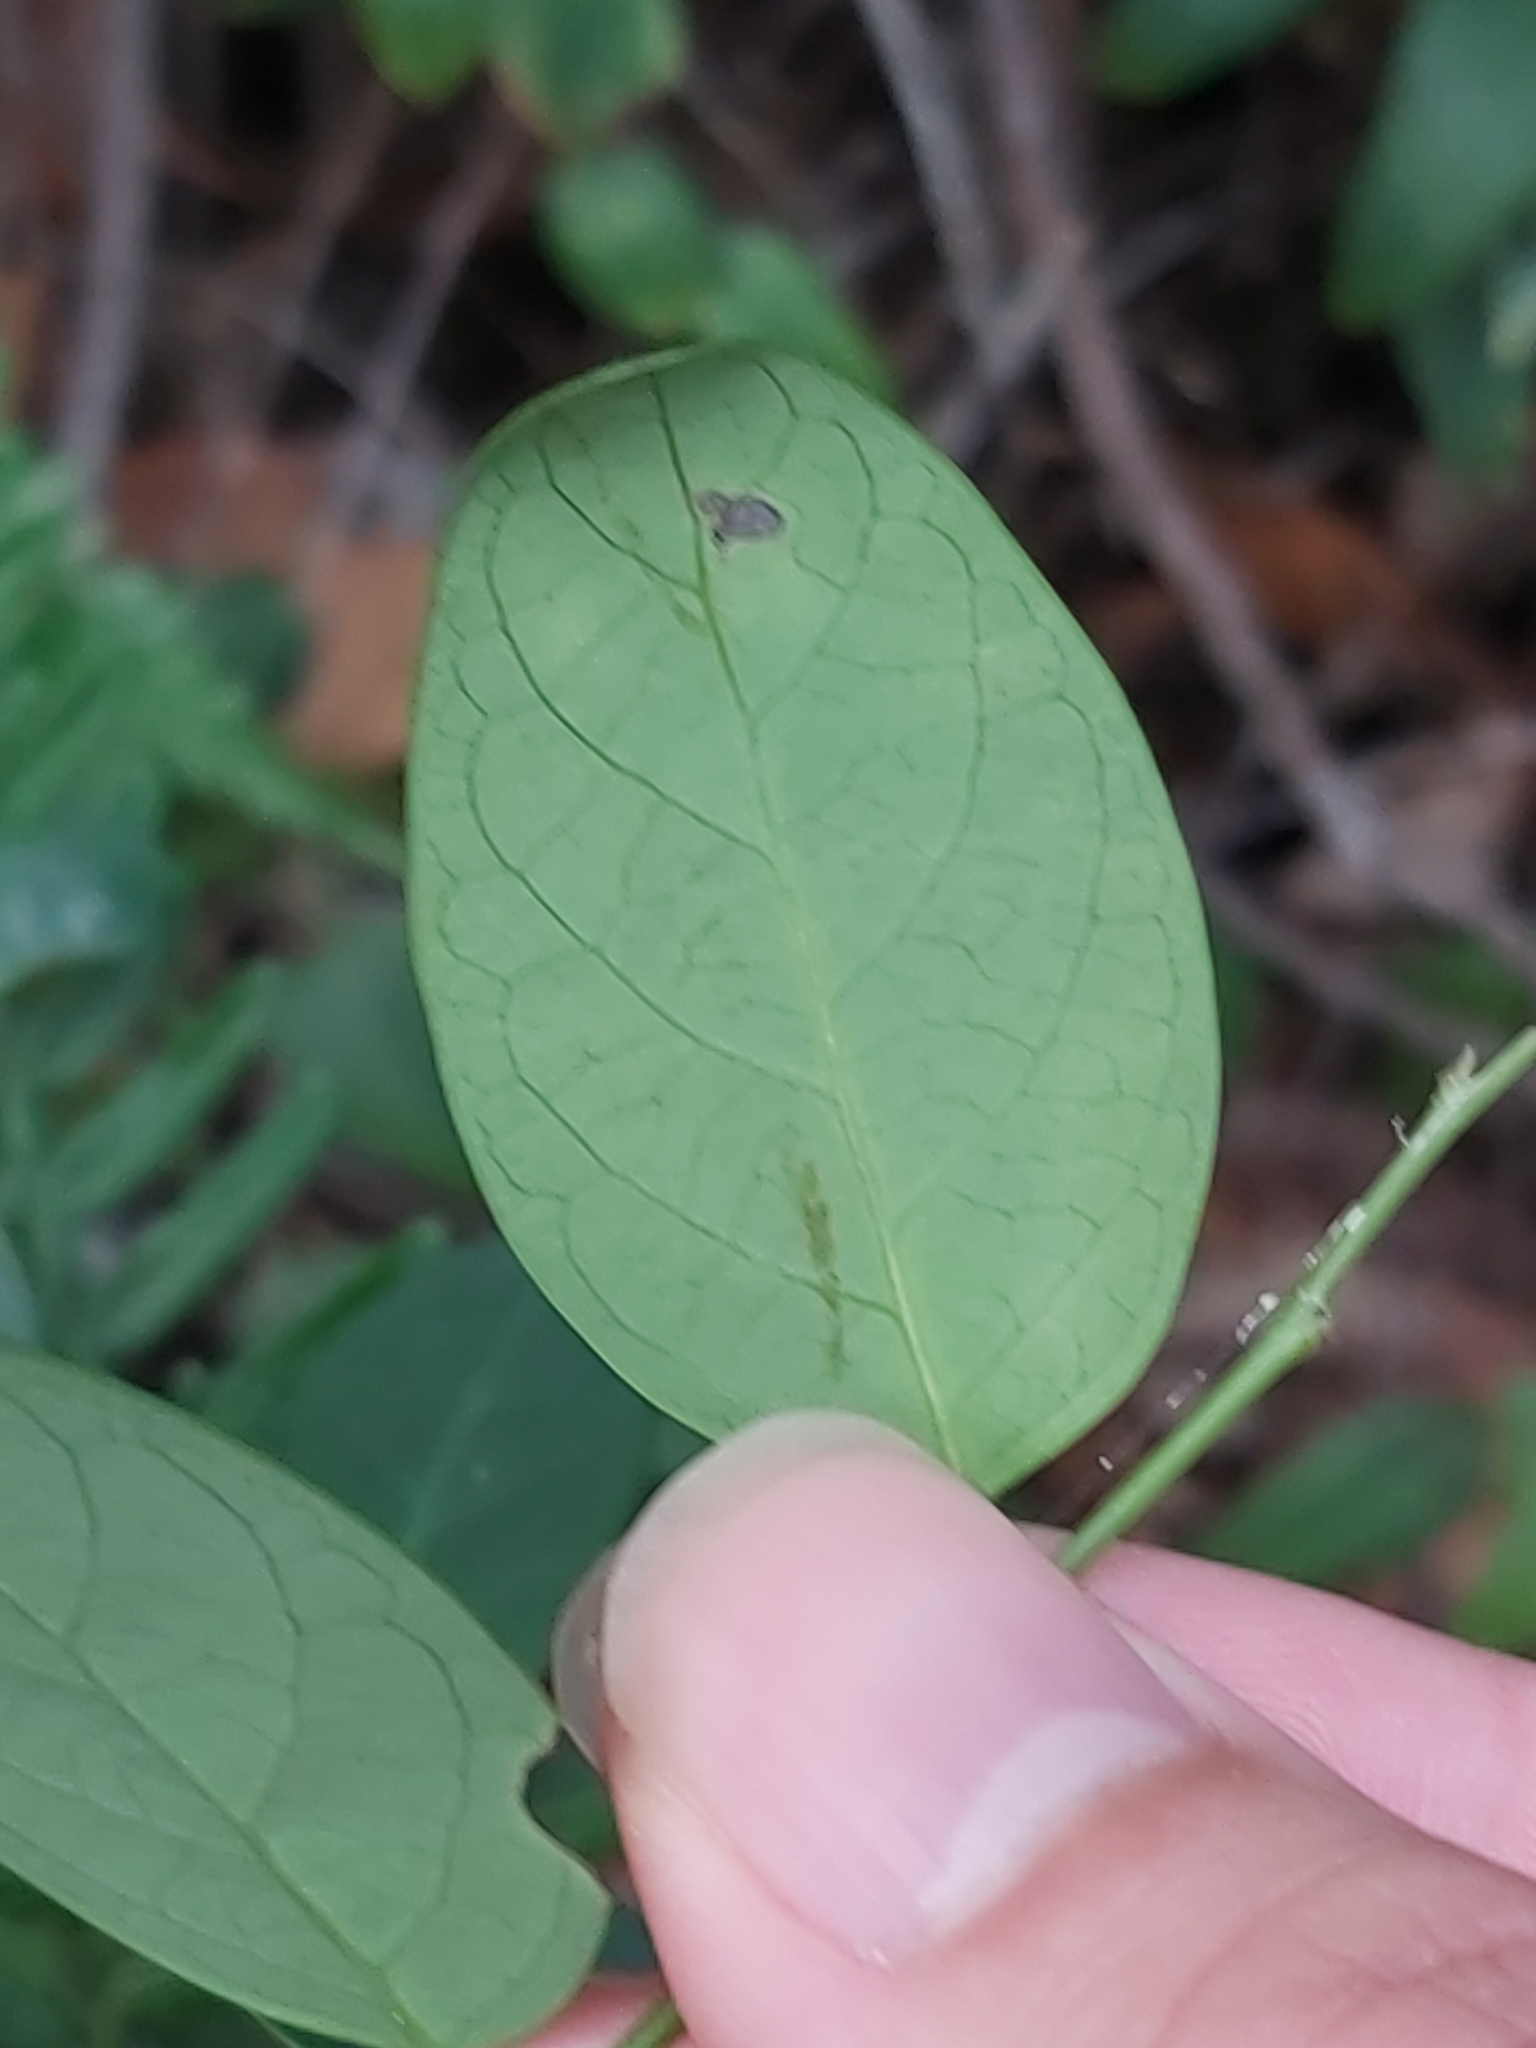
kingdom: Plantae
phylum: Tracheophyta
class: Magnoliopsida
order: Malpighiales
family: Phyllanthaceae
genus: Breynia
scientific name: Breynia oblongifolia
